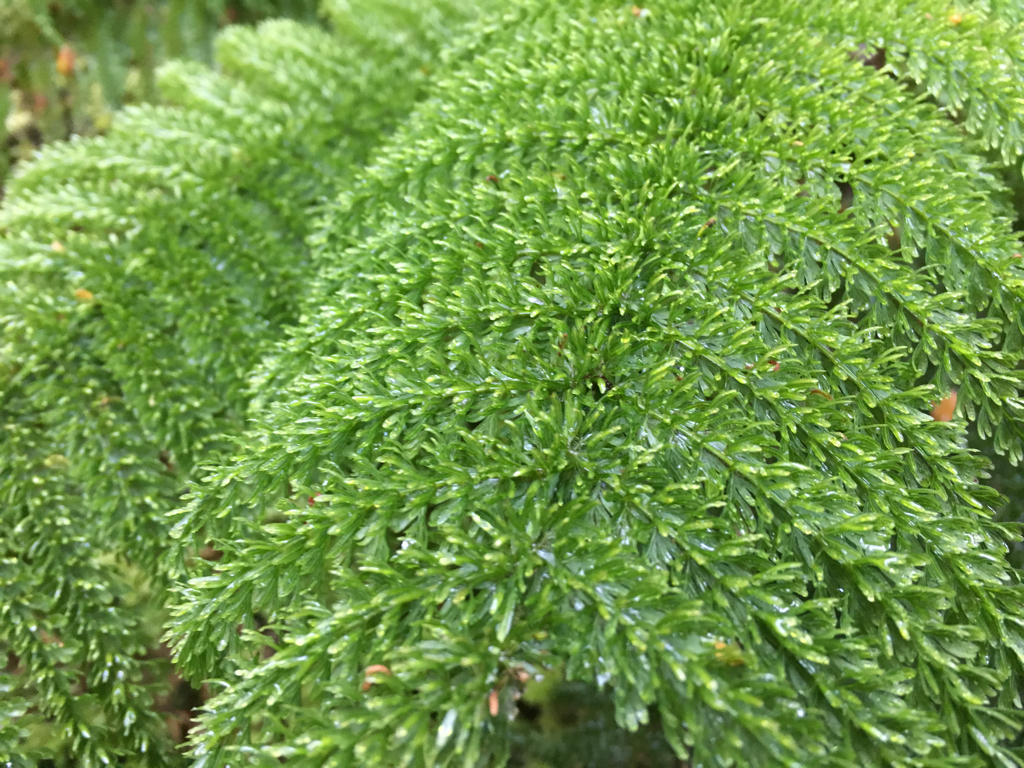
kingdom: Plantae
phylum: Tracheophyta
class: Polypodiopsida
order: Osmundales
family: Osmundaceae
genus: Leptopteris
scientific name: Leptopteris superba
